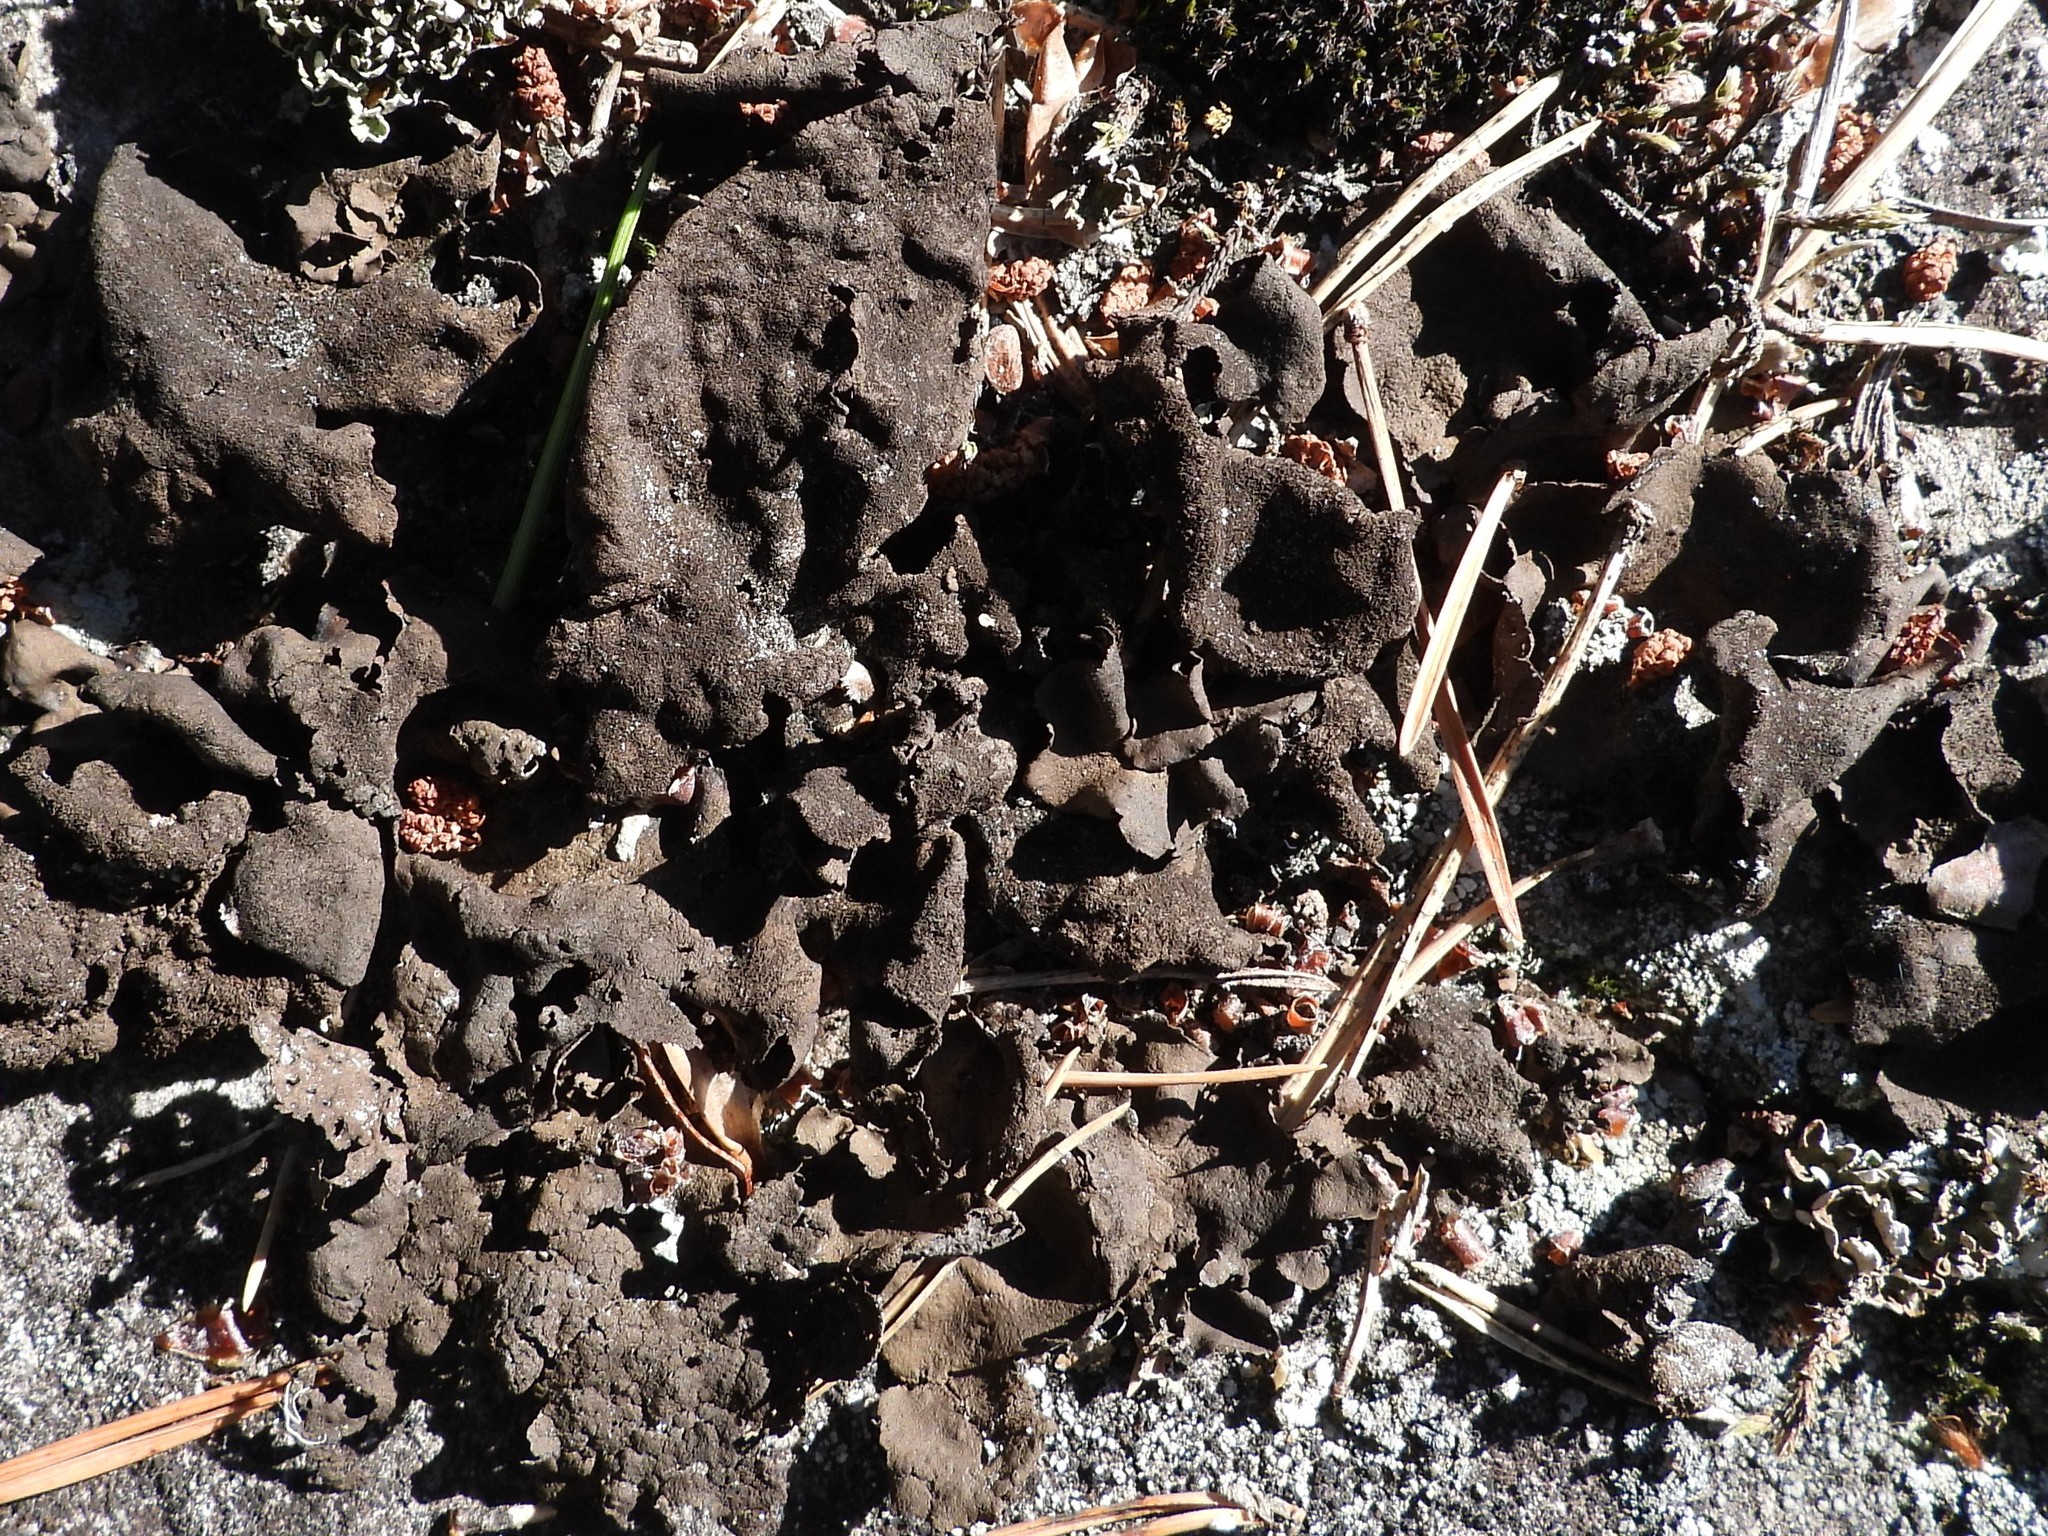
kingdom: Fungi
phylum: Ascomycota
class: Lecanoromycetes
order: Umbilicariales
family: Umbilicariaceae
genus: Umbilicaria
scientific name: Umbilicaria deusta
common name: Peppered rock tripe
